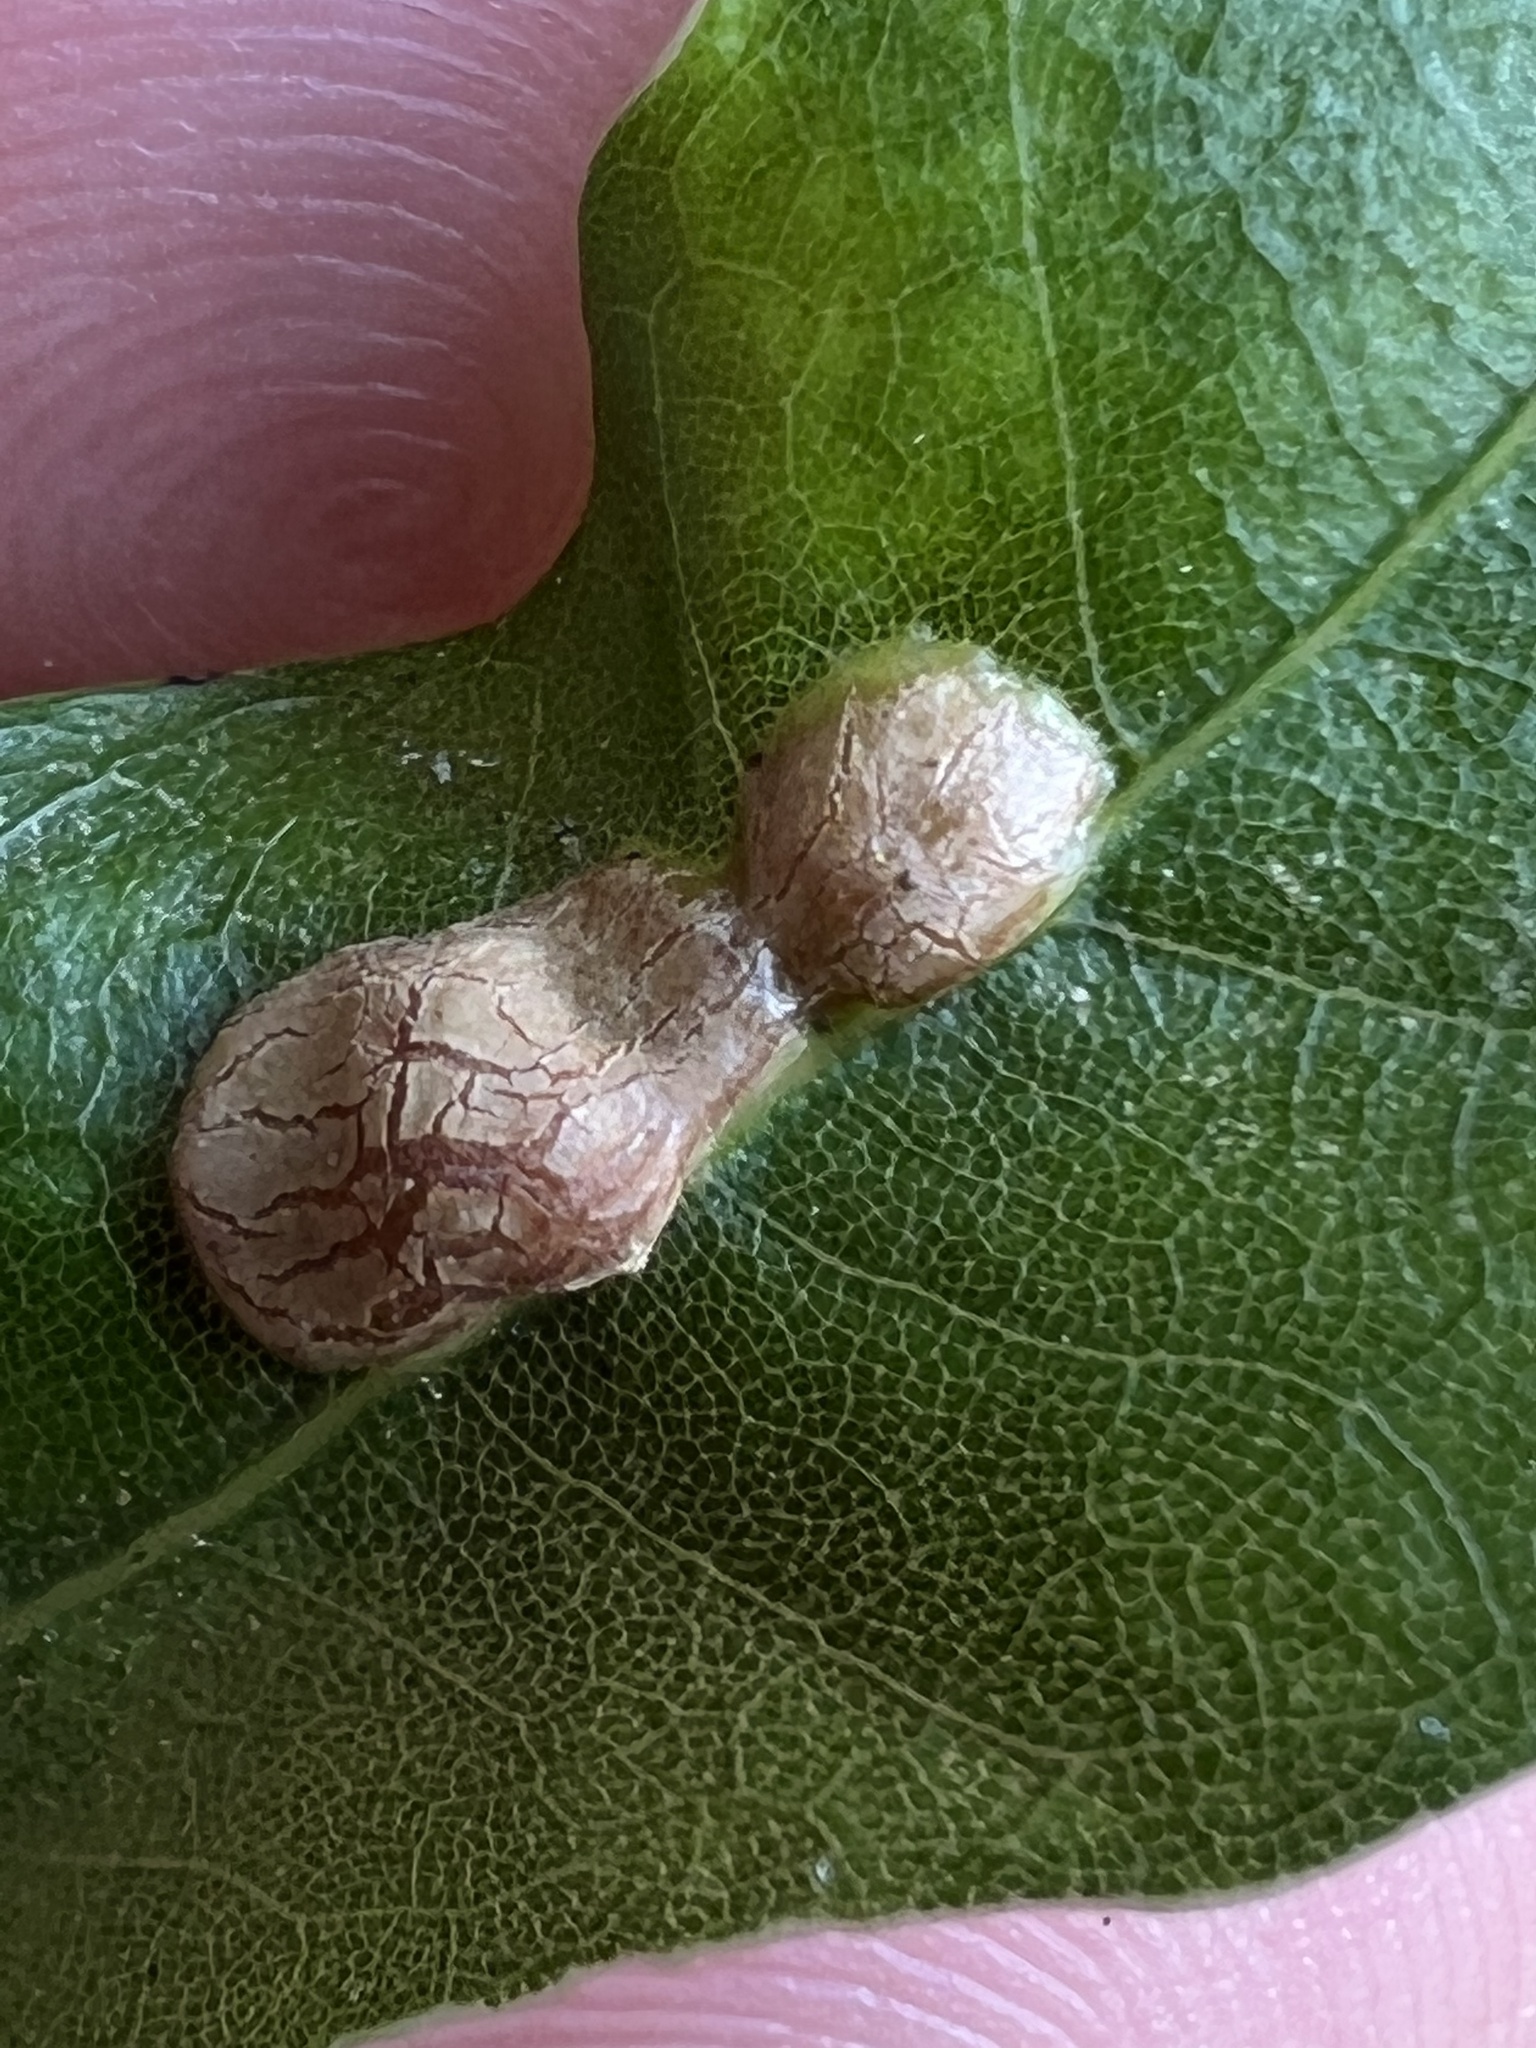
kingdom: Animalia
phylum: Arthropoda
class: Insecta
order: Diptera
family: Cecidomyiidae
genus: Polystepha
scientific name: Polystepha pilulae
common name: Oak leaf gall midge
